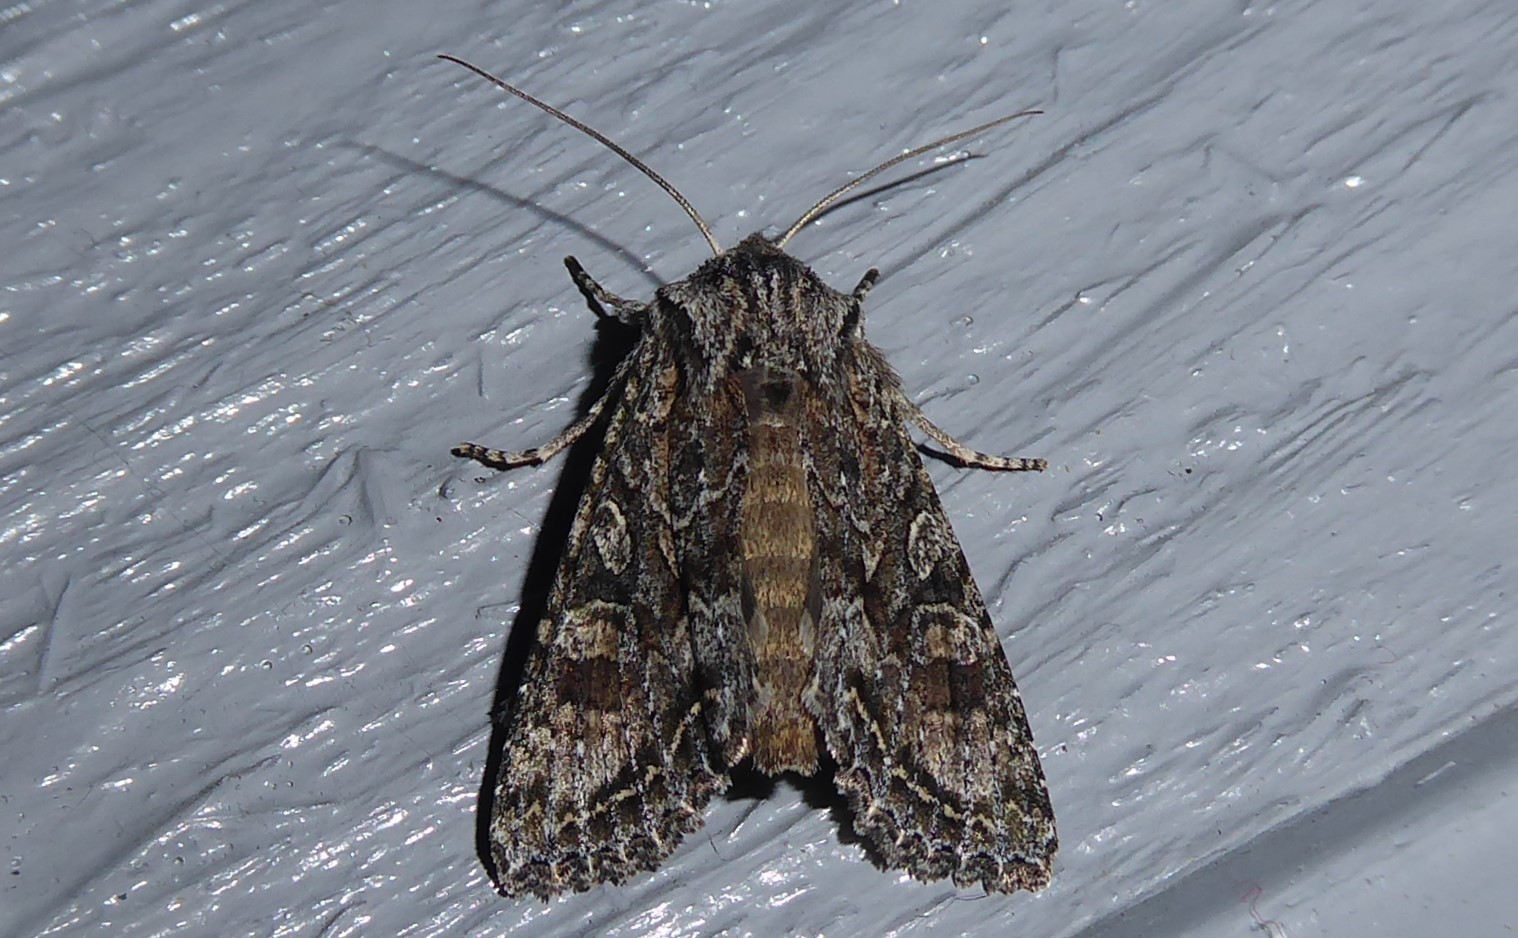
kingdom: Animalia
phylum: Arthropoda
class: Insecta
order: Lepidoptera
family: Noctuidae
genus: Ichneutica
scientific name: Ichneutica mutans
